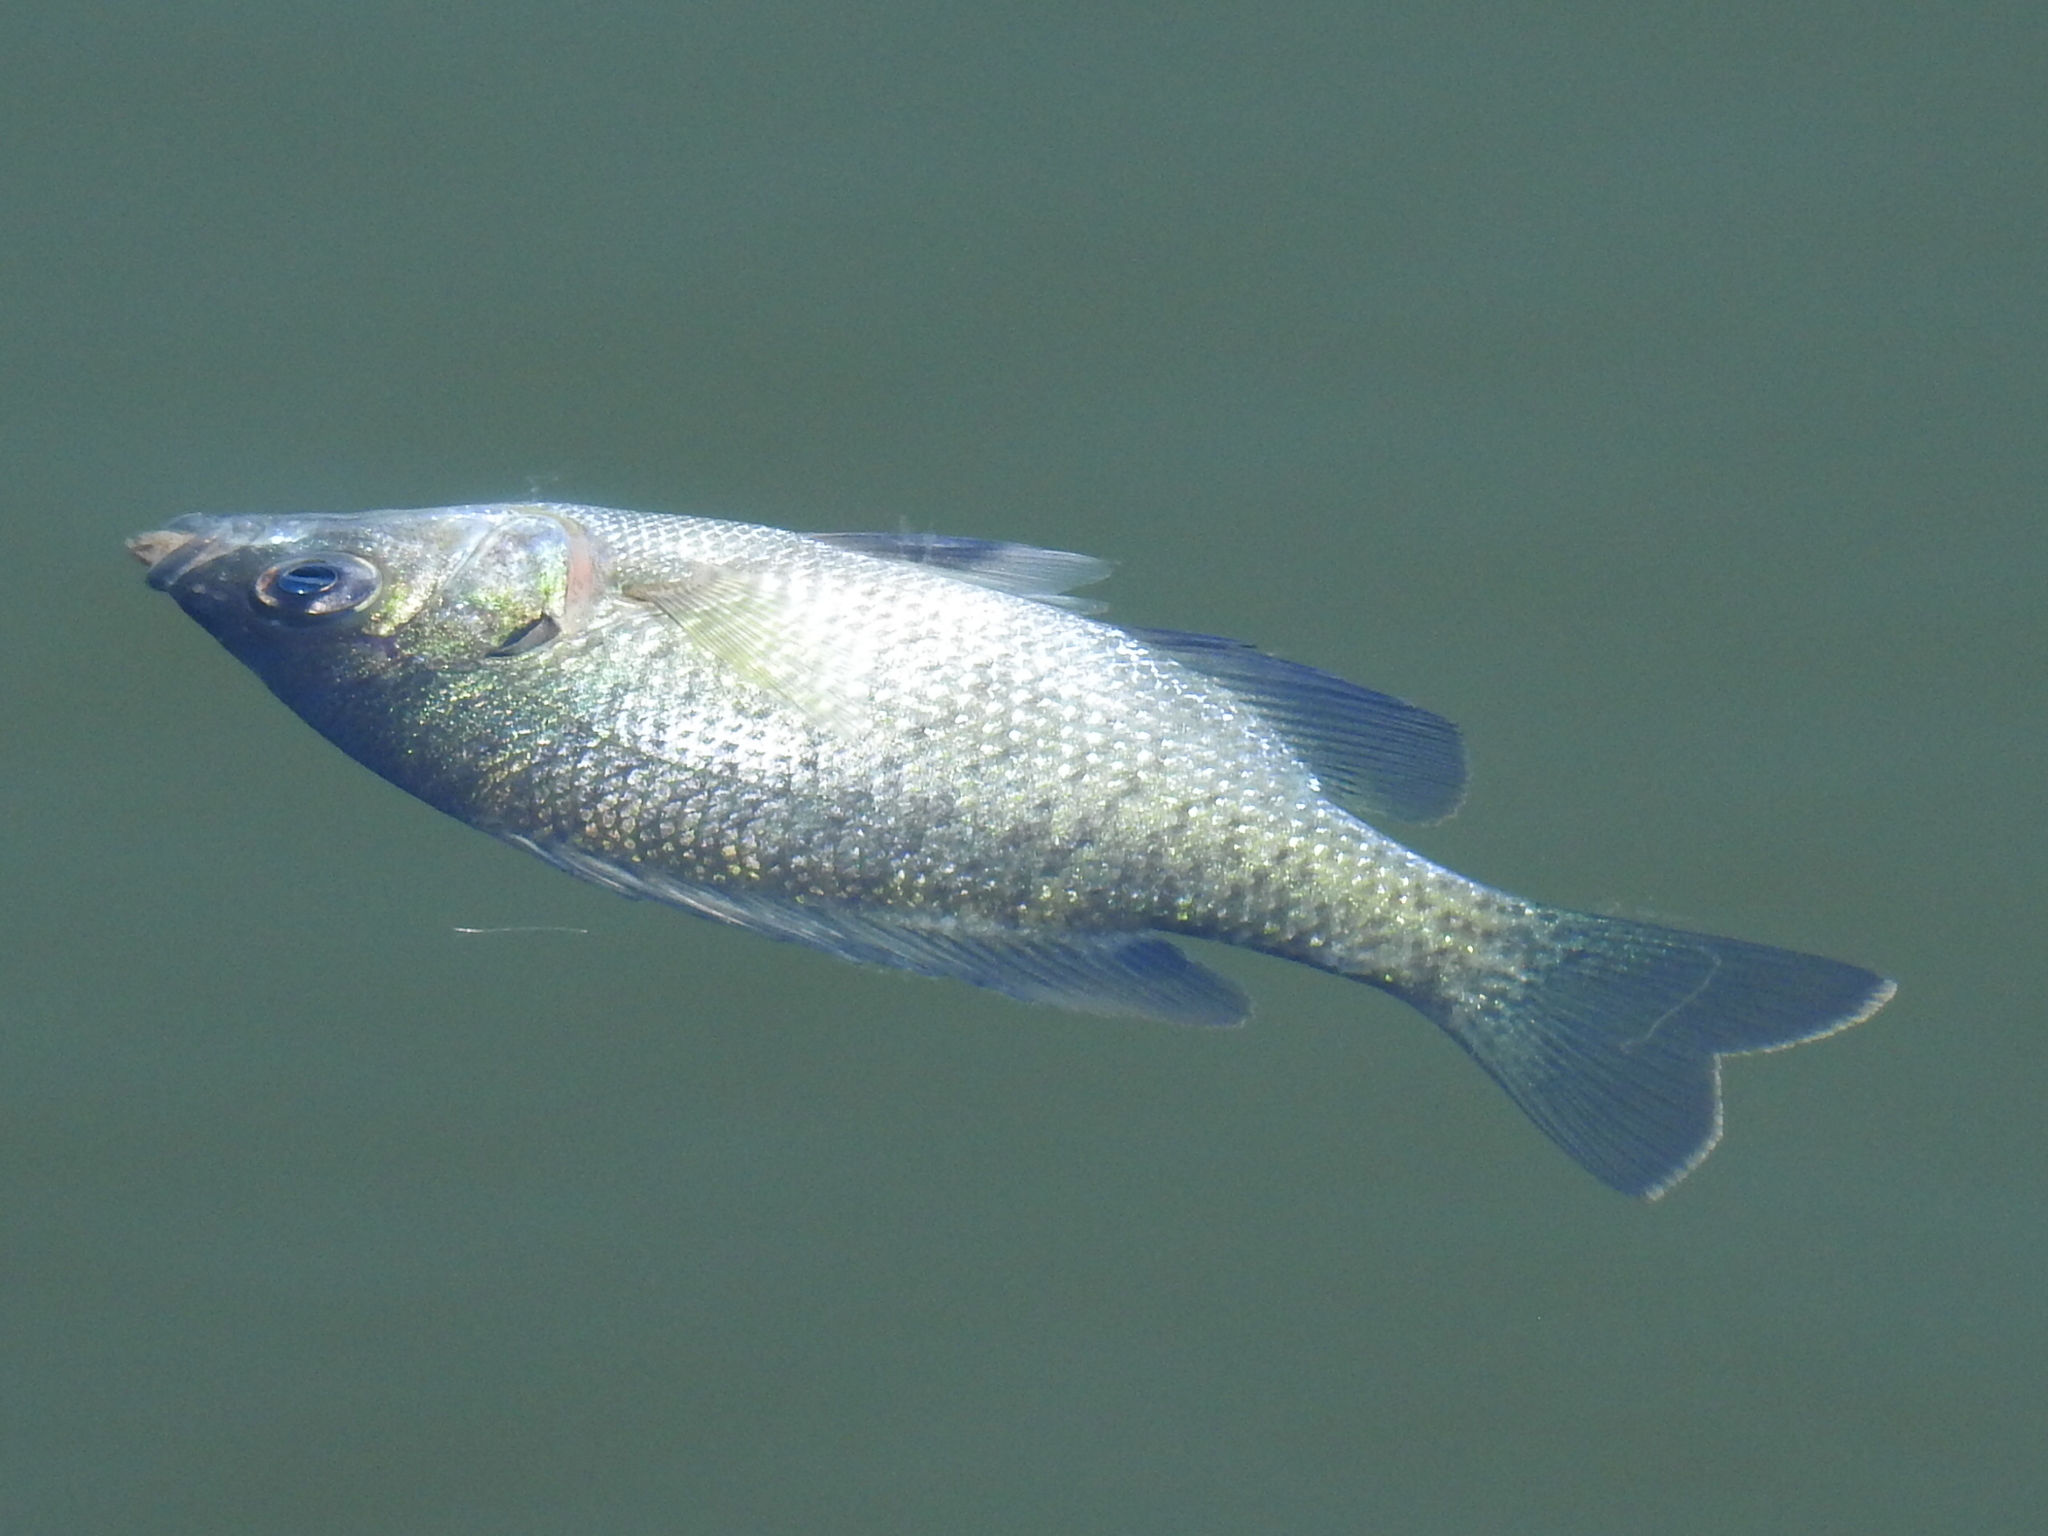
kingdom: Animalia
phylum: Chordata
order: Perciformes
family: Centrarchidae
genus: Lepomis
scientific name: Lepomis macrochirus
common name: Bluegill
